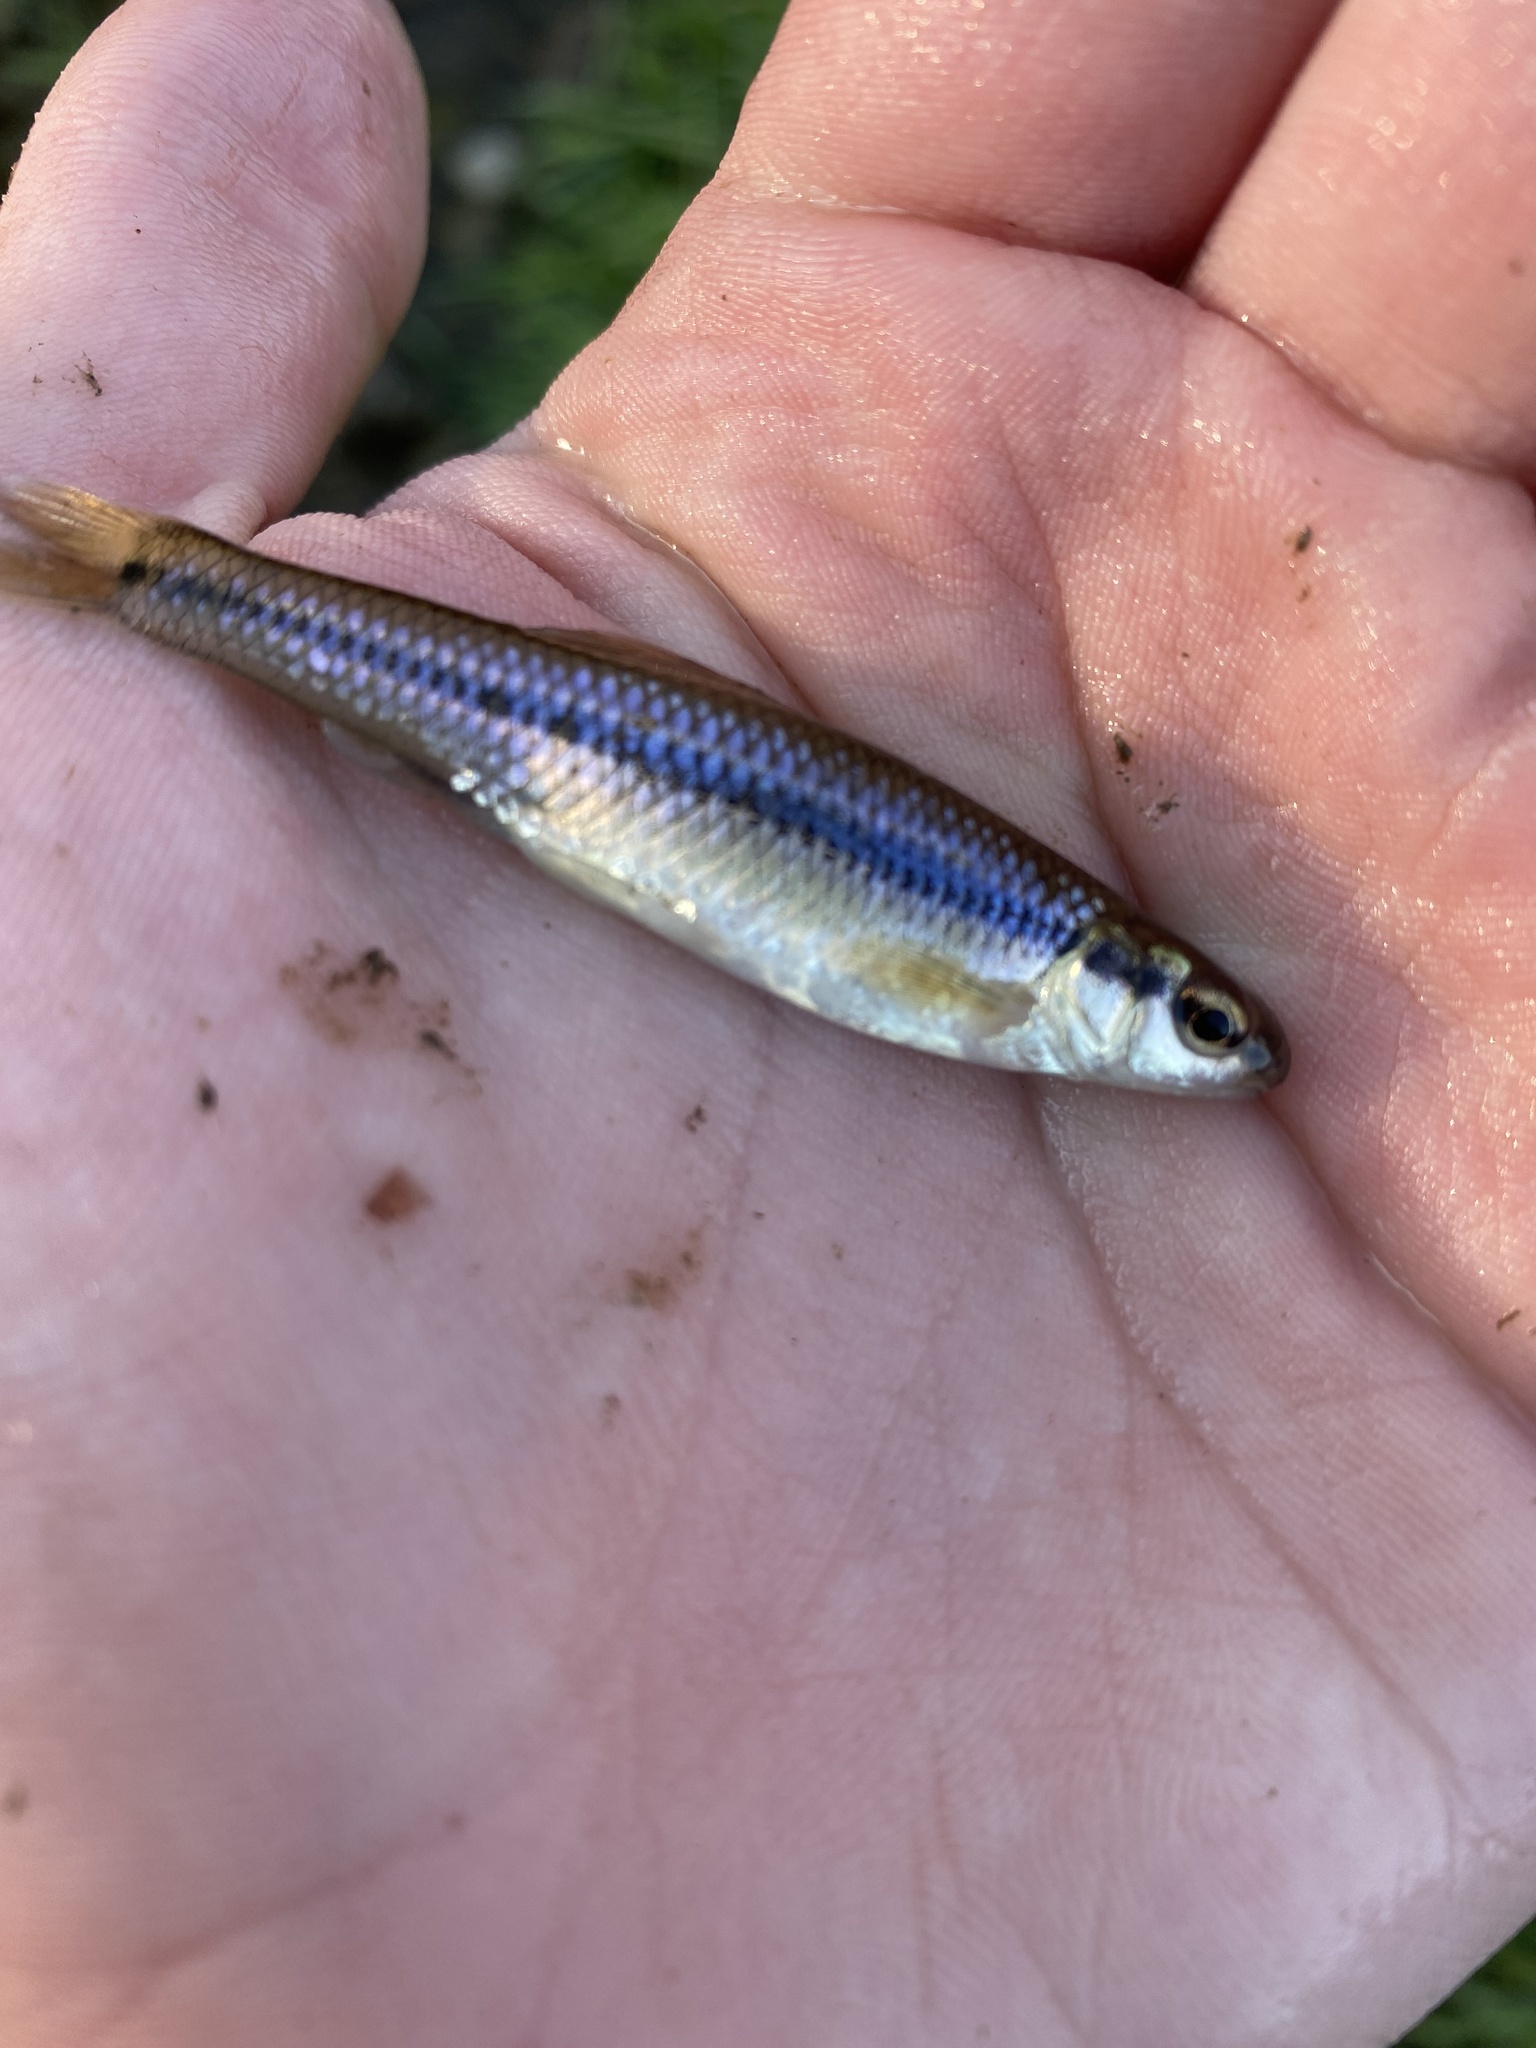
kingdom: Animalia
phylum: Chordata
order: Cypriniformes
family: Cyprinidae
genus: Pimephales
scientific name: Pimephales notatus
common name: Bluntnose minnow
